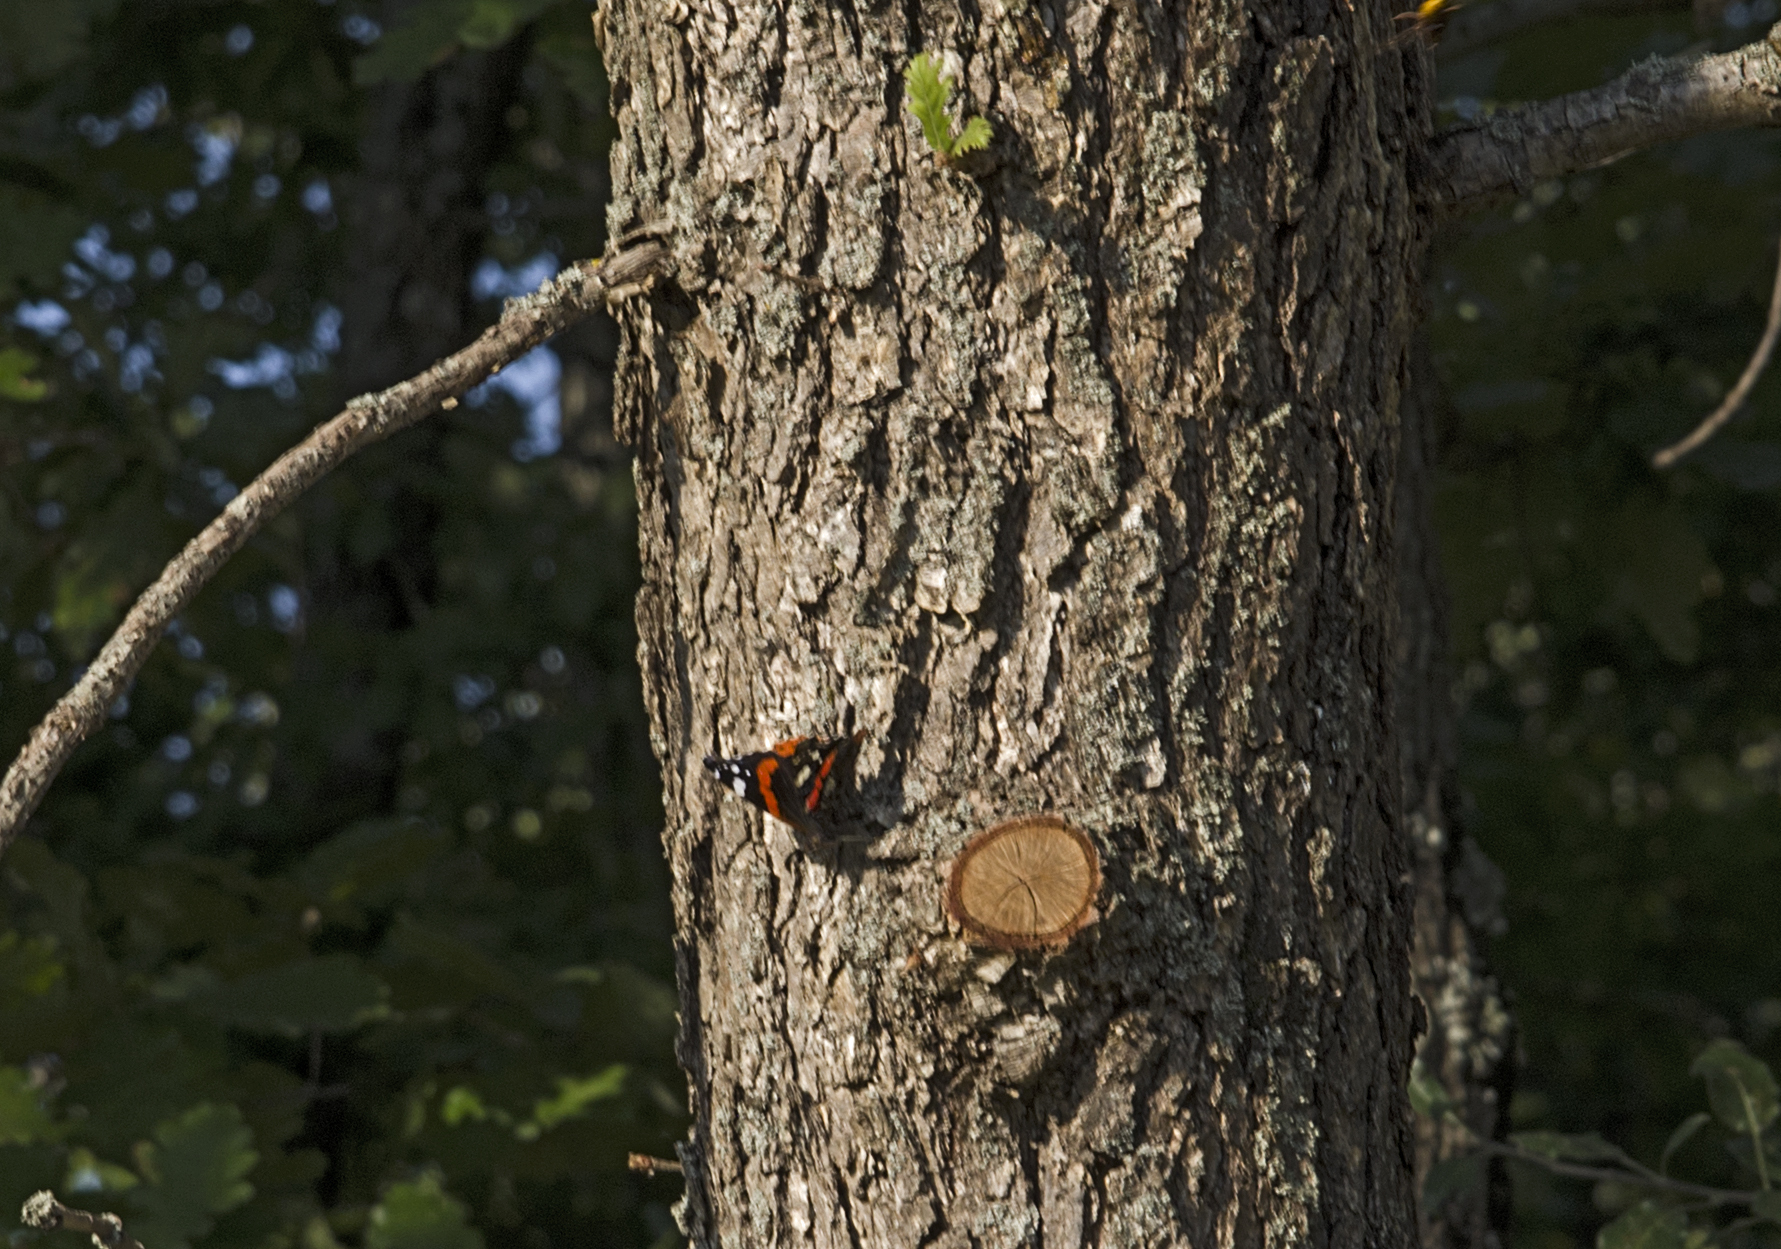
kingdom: Animalia
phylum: Arthropoda
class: Insecta
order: Lepidoptera
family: Nymphalidae
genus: Vanessa
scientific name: Vanessa atalanta
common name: Red admiral
